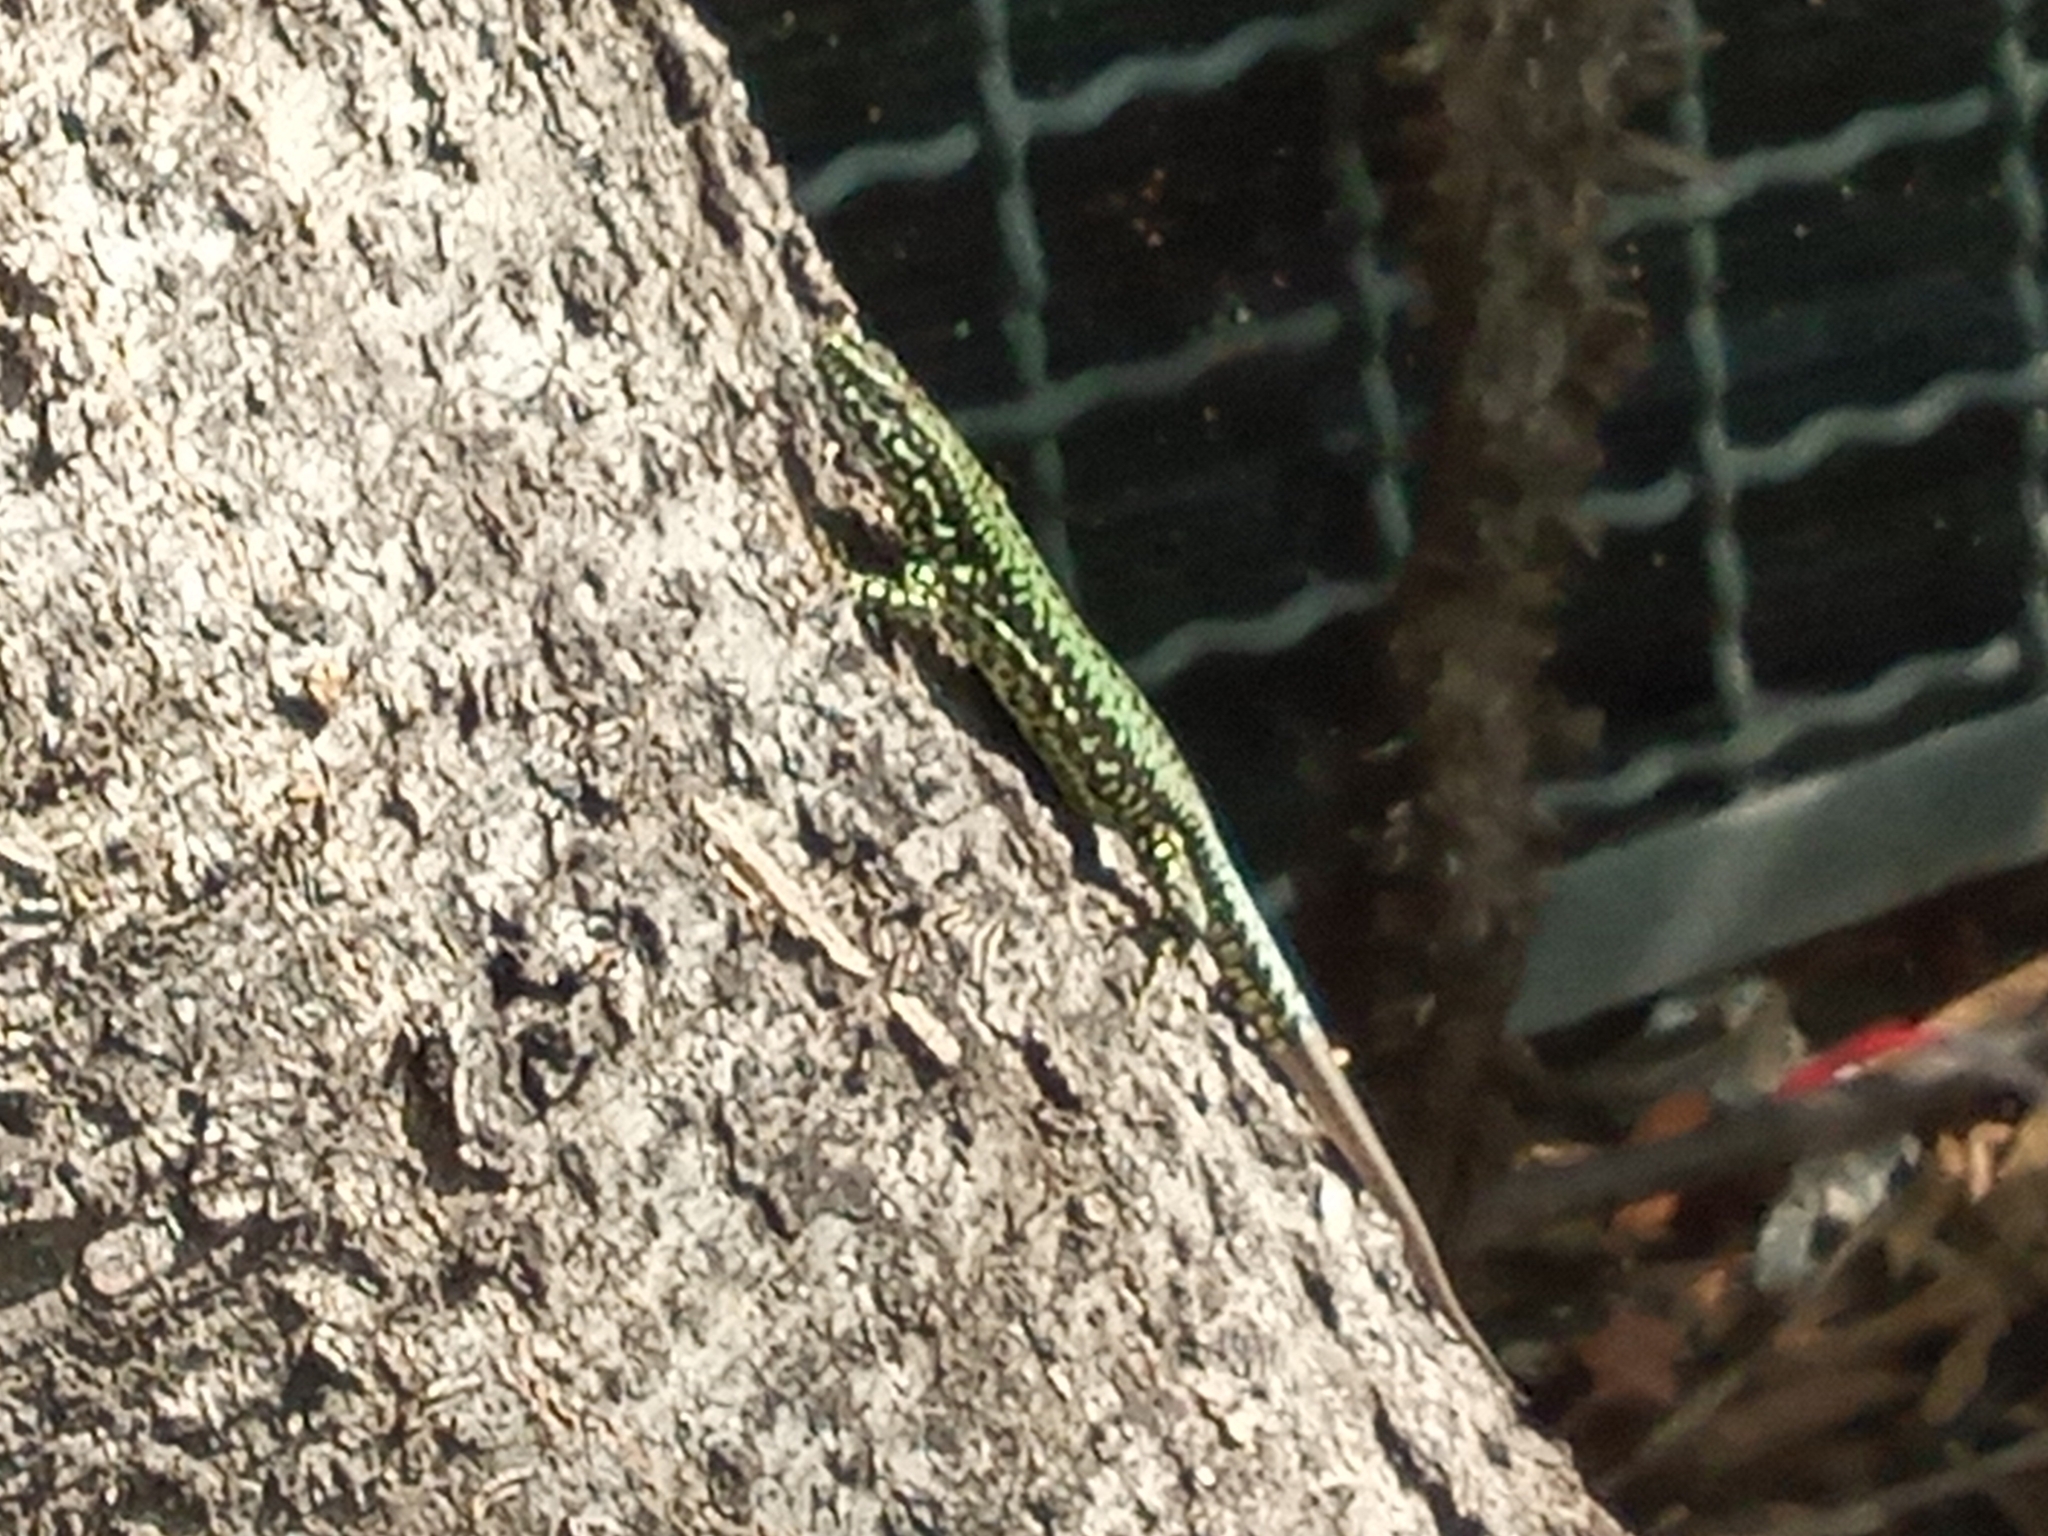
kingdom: Animalia
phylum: Chordata
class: Squamata
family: Lacertidae
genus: Podarcis
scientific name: Podarcis muralis
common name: Common wall lizard
